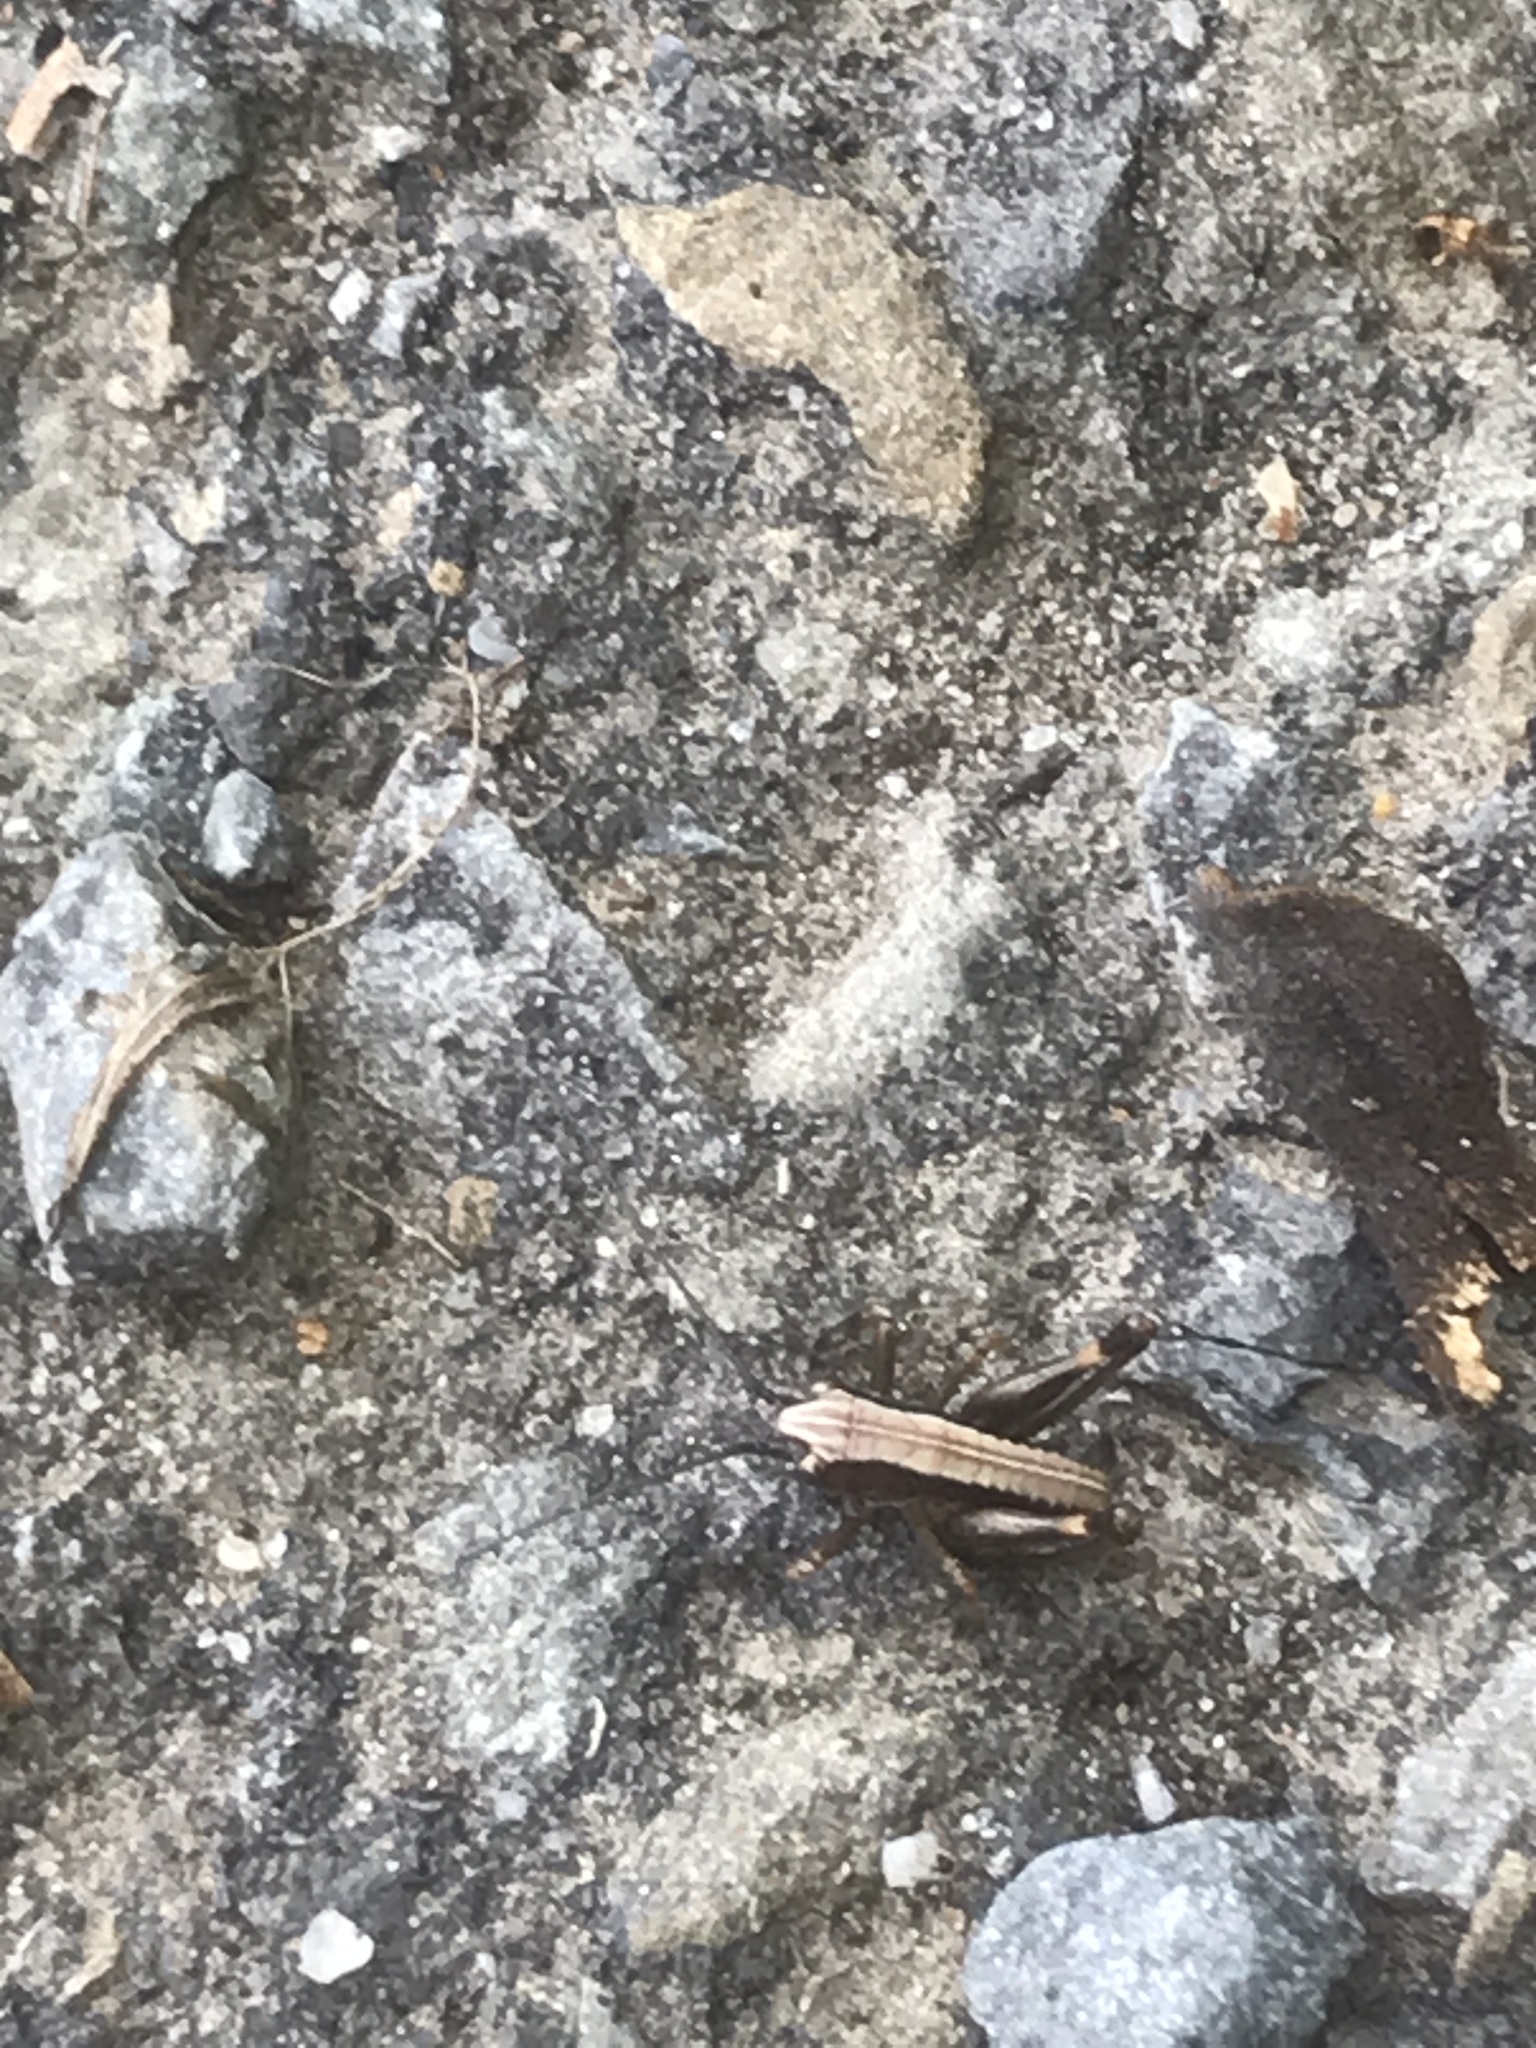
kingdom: Animalia
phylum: Arthropoda
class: Insecta
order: Orthoptera
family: Tettigoniidae
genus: Pholidoptera
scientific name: Pholidoptera griseoaptera
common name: Dark bush-cricket
